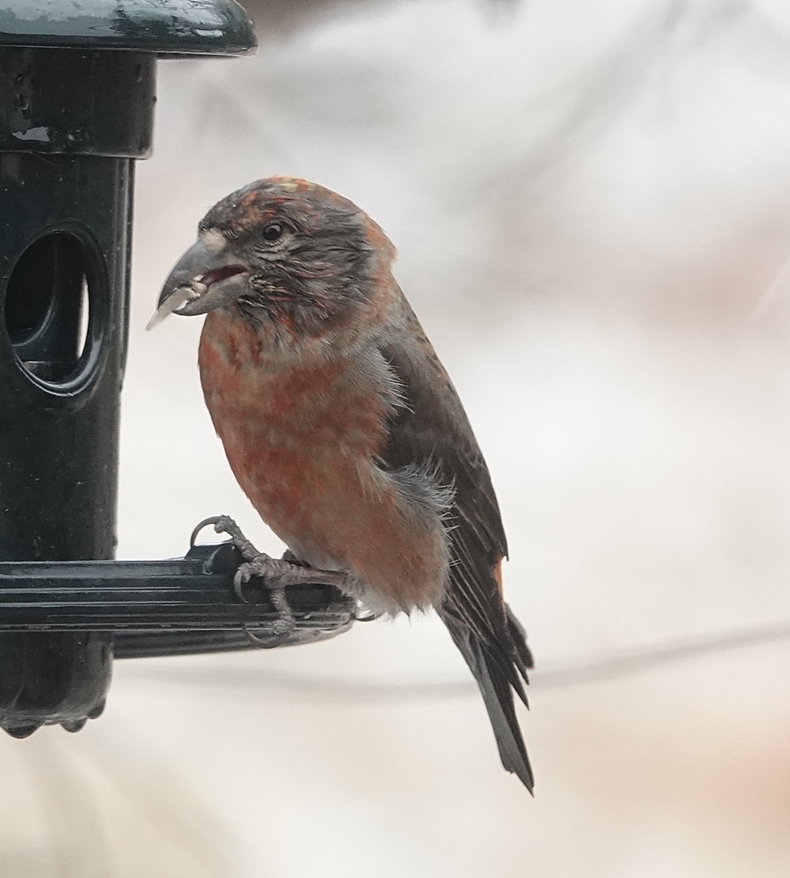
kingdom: Animalia
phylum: Chordata
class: Aves
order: Passeriformes
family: Fringillidae
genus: Loxia
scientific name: Loxia curvirostra
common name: Red crossbill
